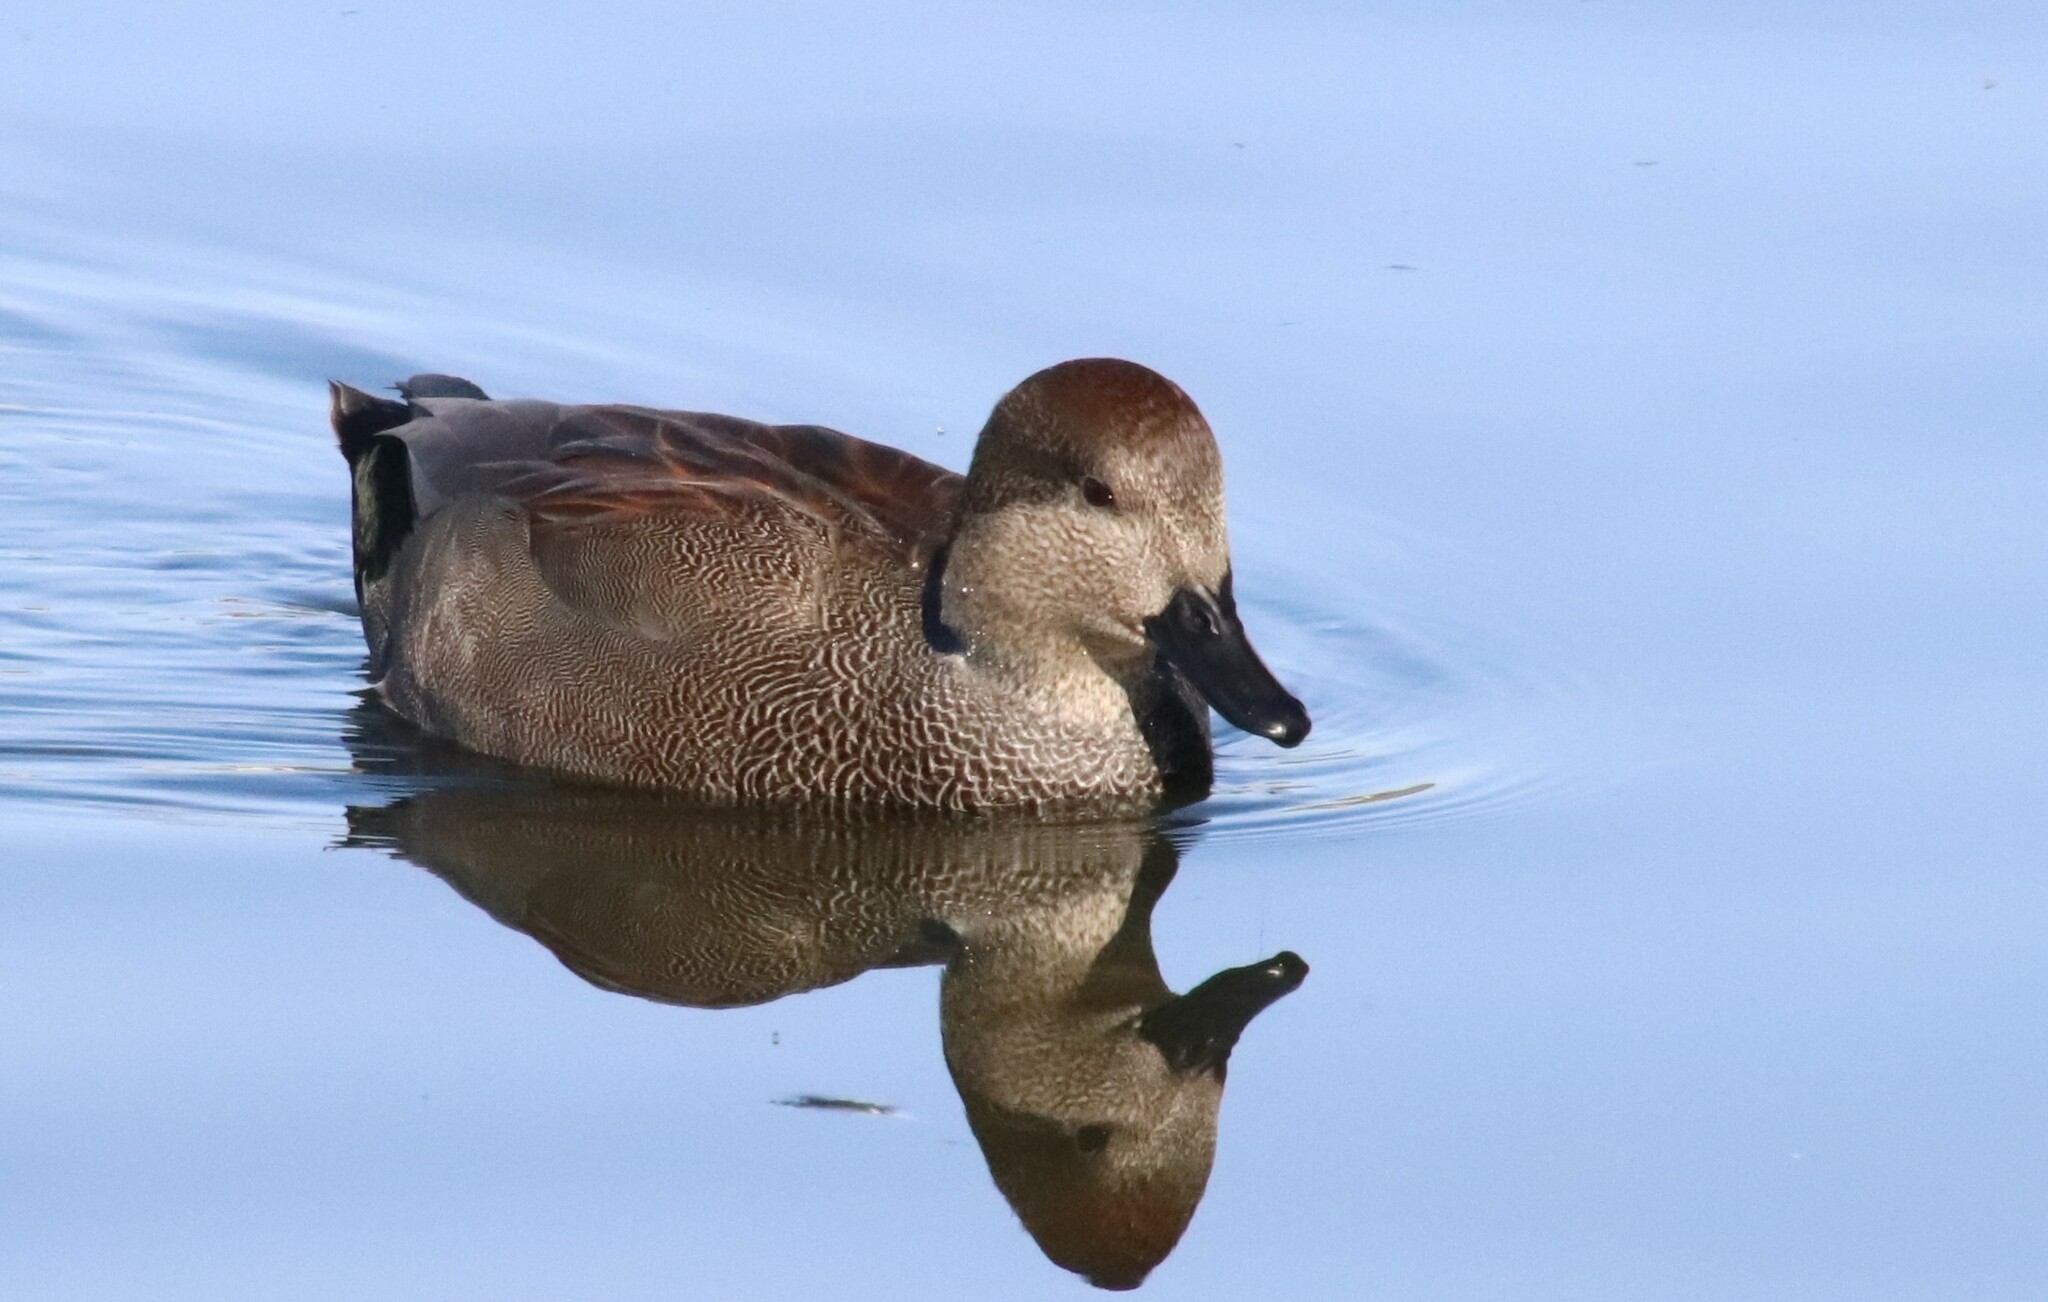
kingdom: Animalia
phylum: Chordata
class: Aves
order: Anseriformes
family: Anatidae
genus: Mareca
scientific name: Mareca strepera
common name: Gadwall
